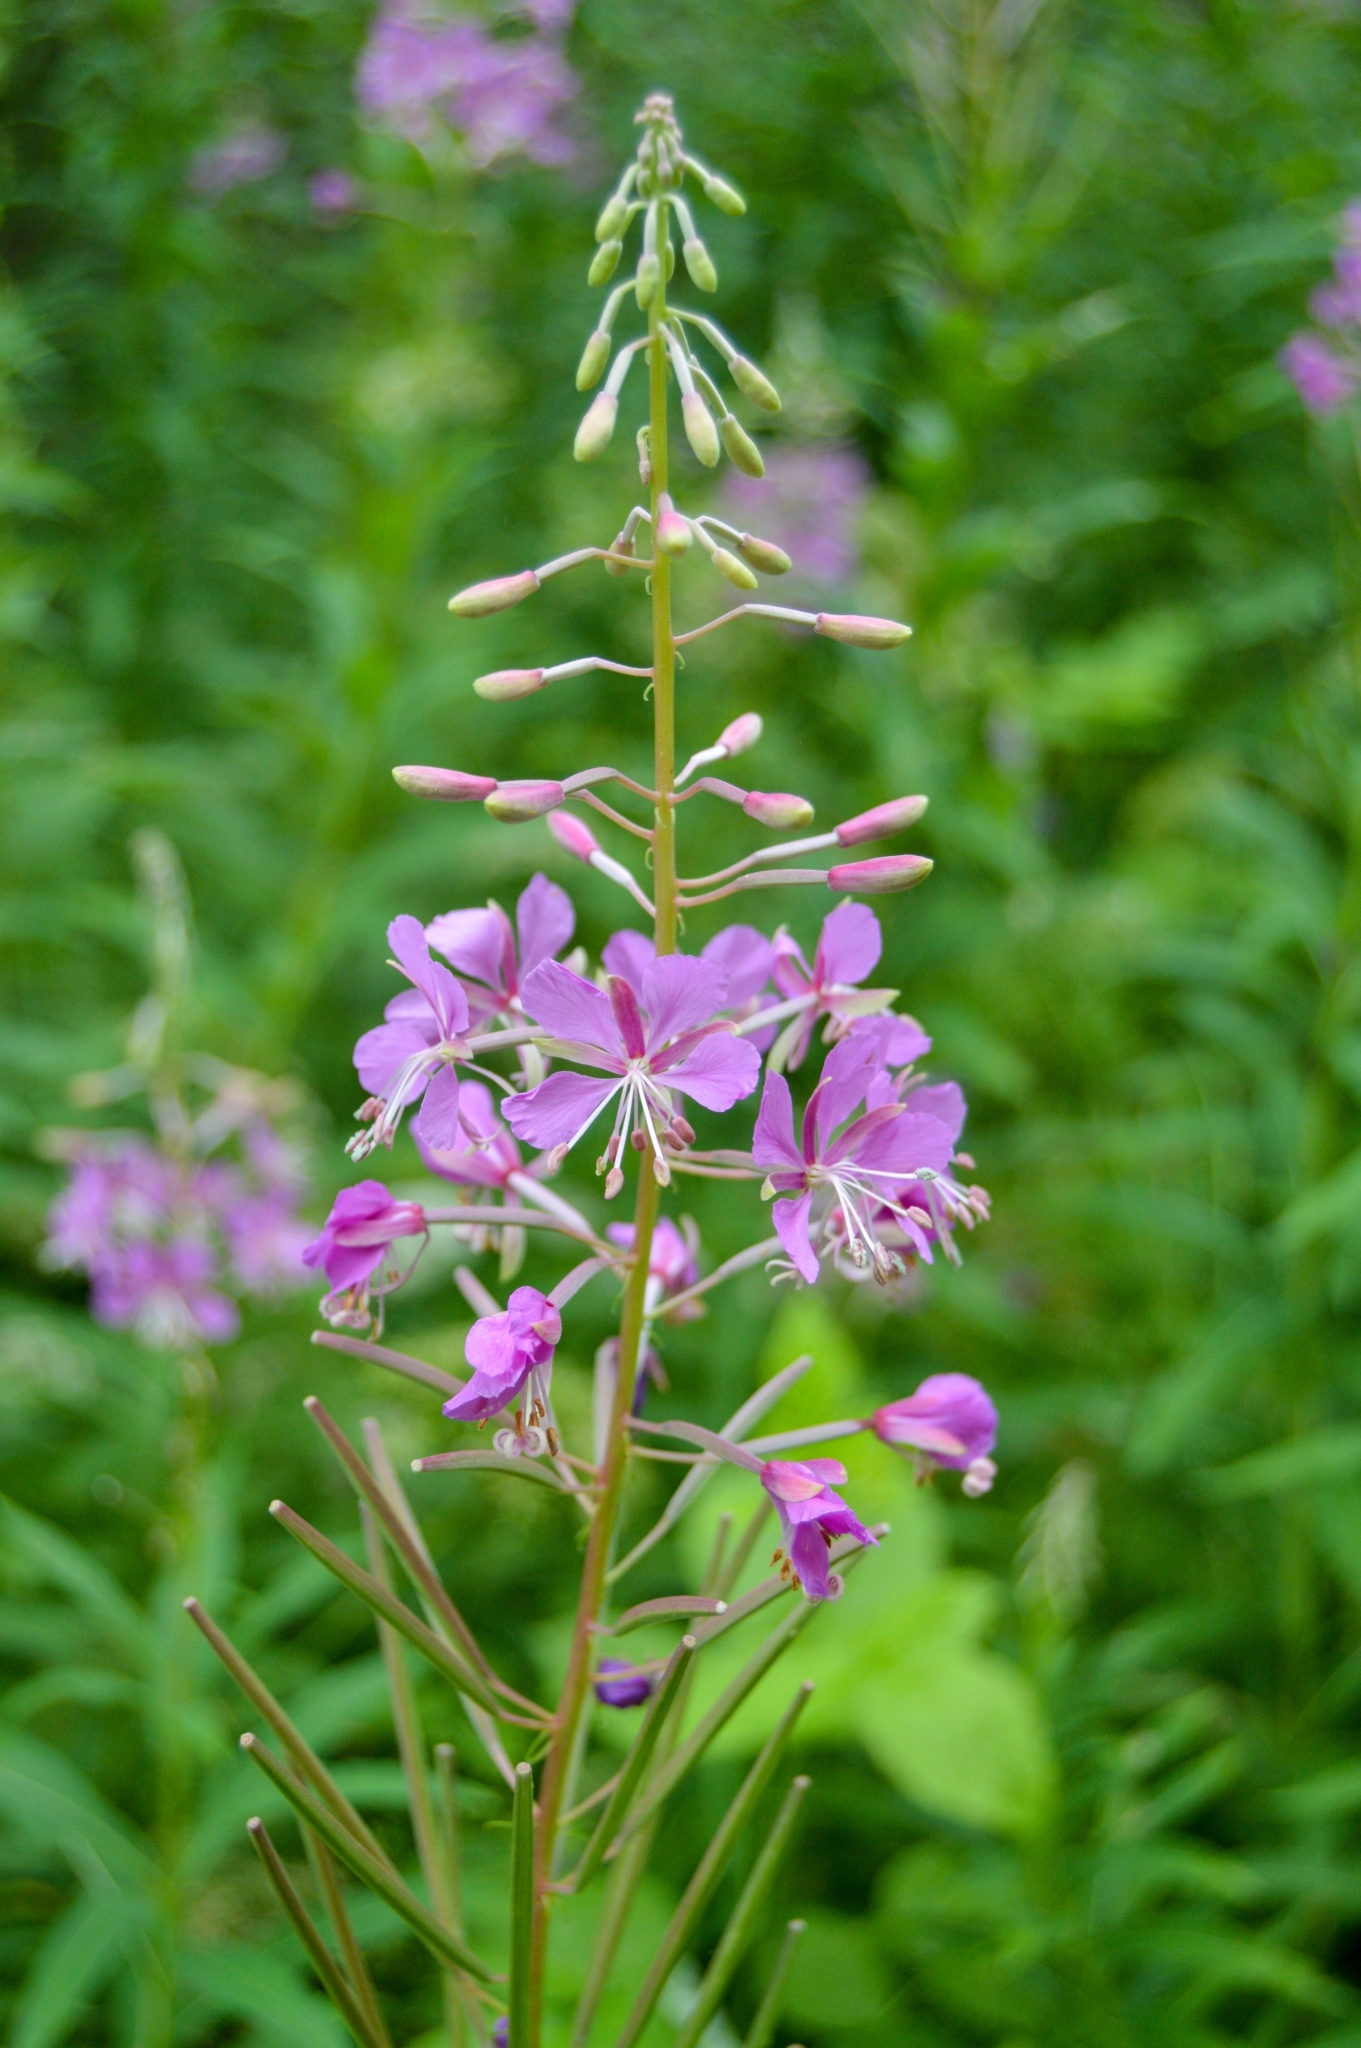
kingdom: Plantae
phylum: Tracheophyta
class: Magnoliopsida
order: Myrtales
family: Onagraceae
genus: Chamaenerion
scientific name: Chamaenerion angustifolium
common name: Fireweed
